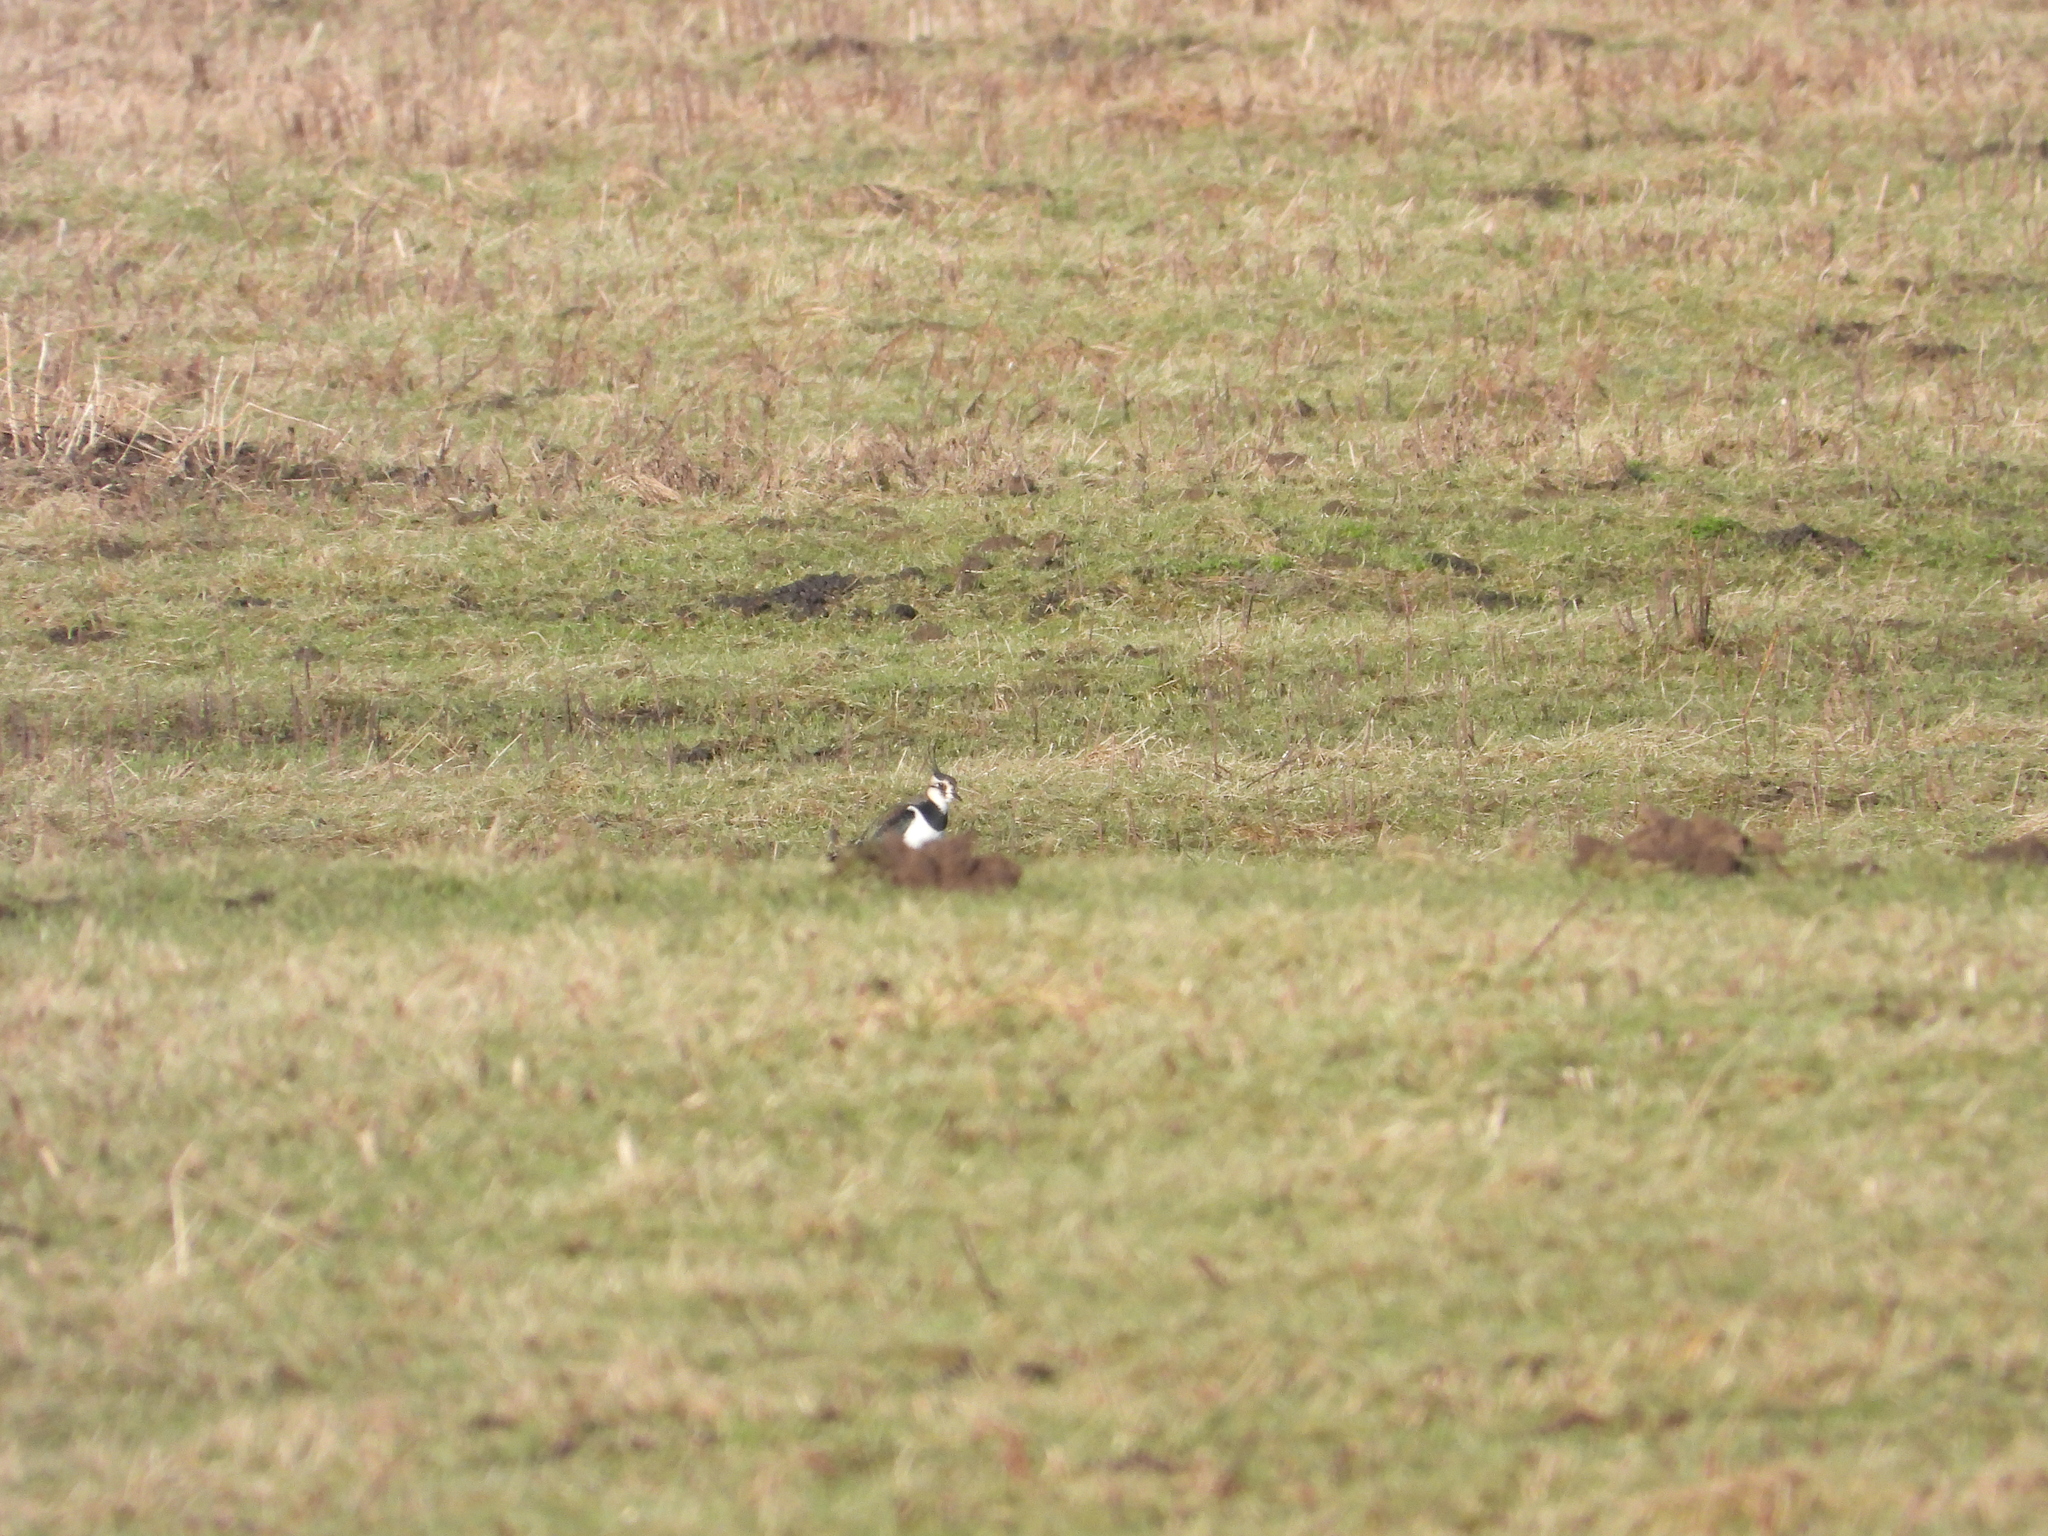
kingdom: Animalia
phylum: Chordata
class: Aves
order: Charadriiformes
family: Charadriidae
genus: Vanellus
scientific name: Vanellus vanellus
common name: Northern lapwing
